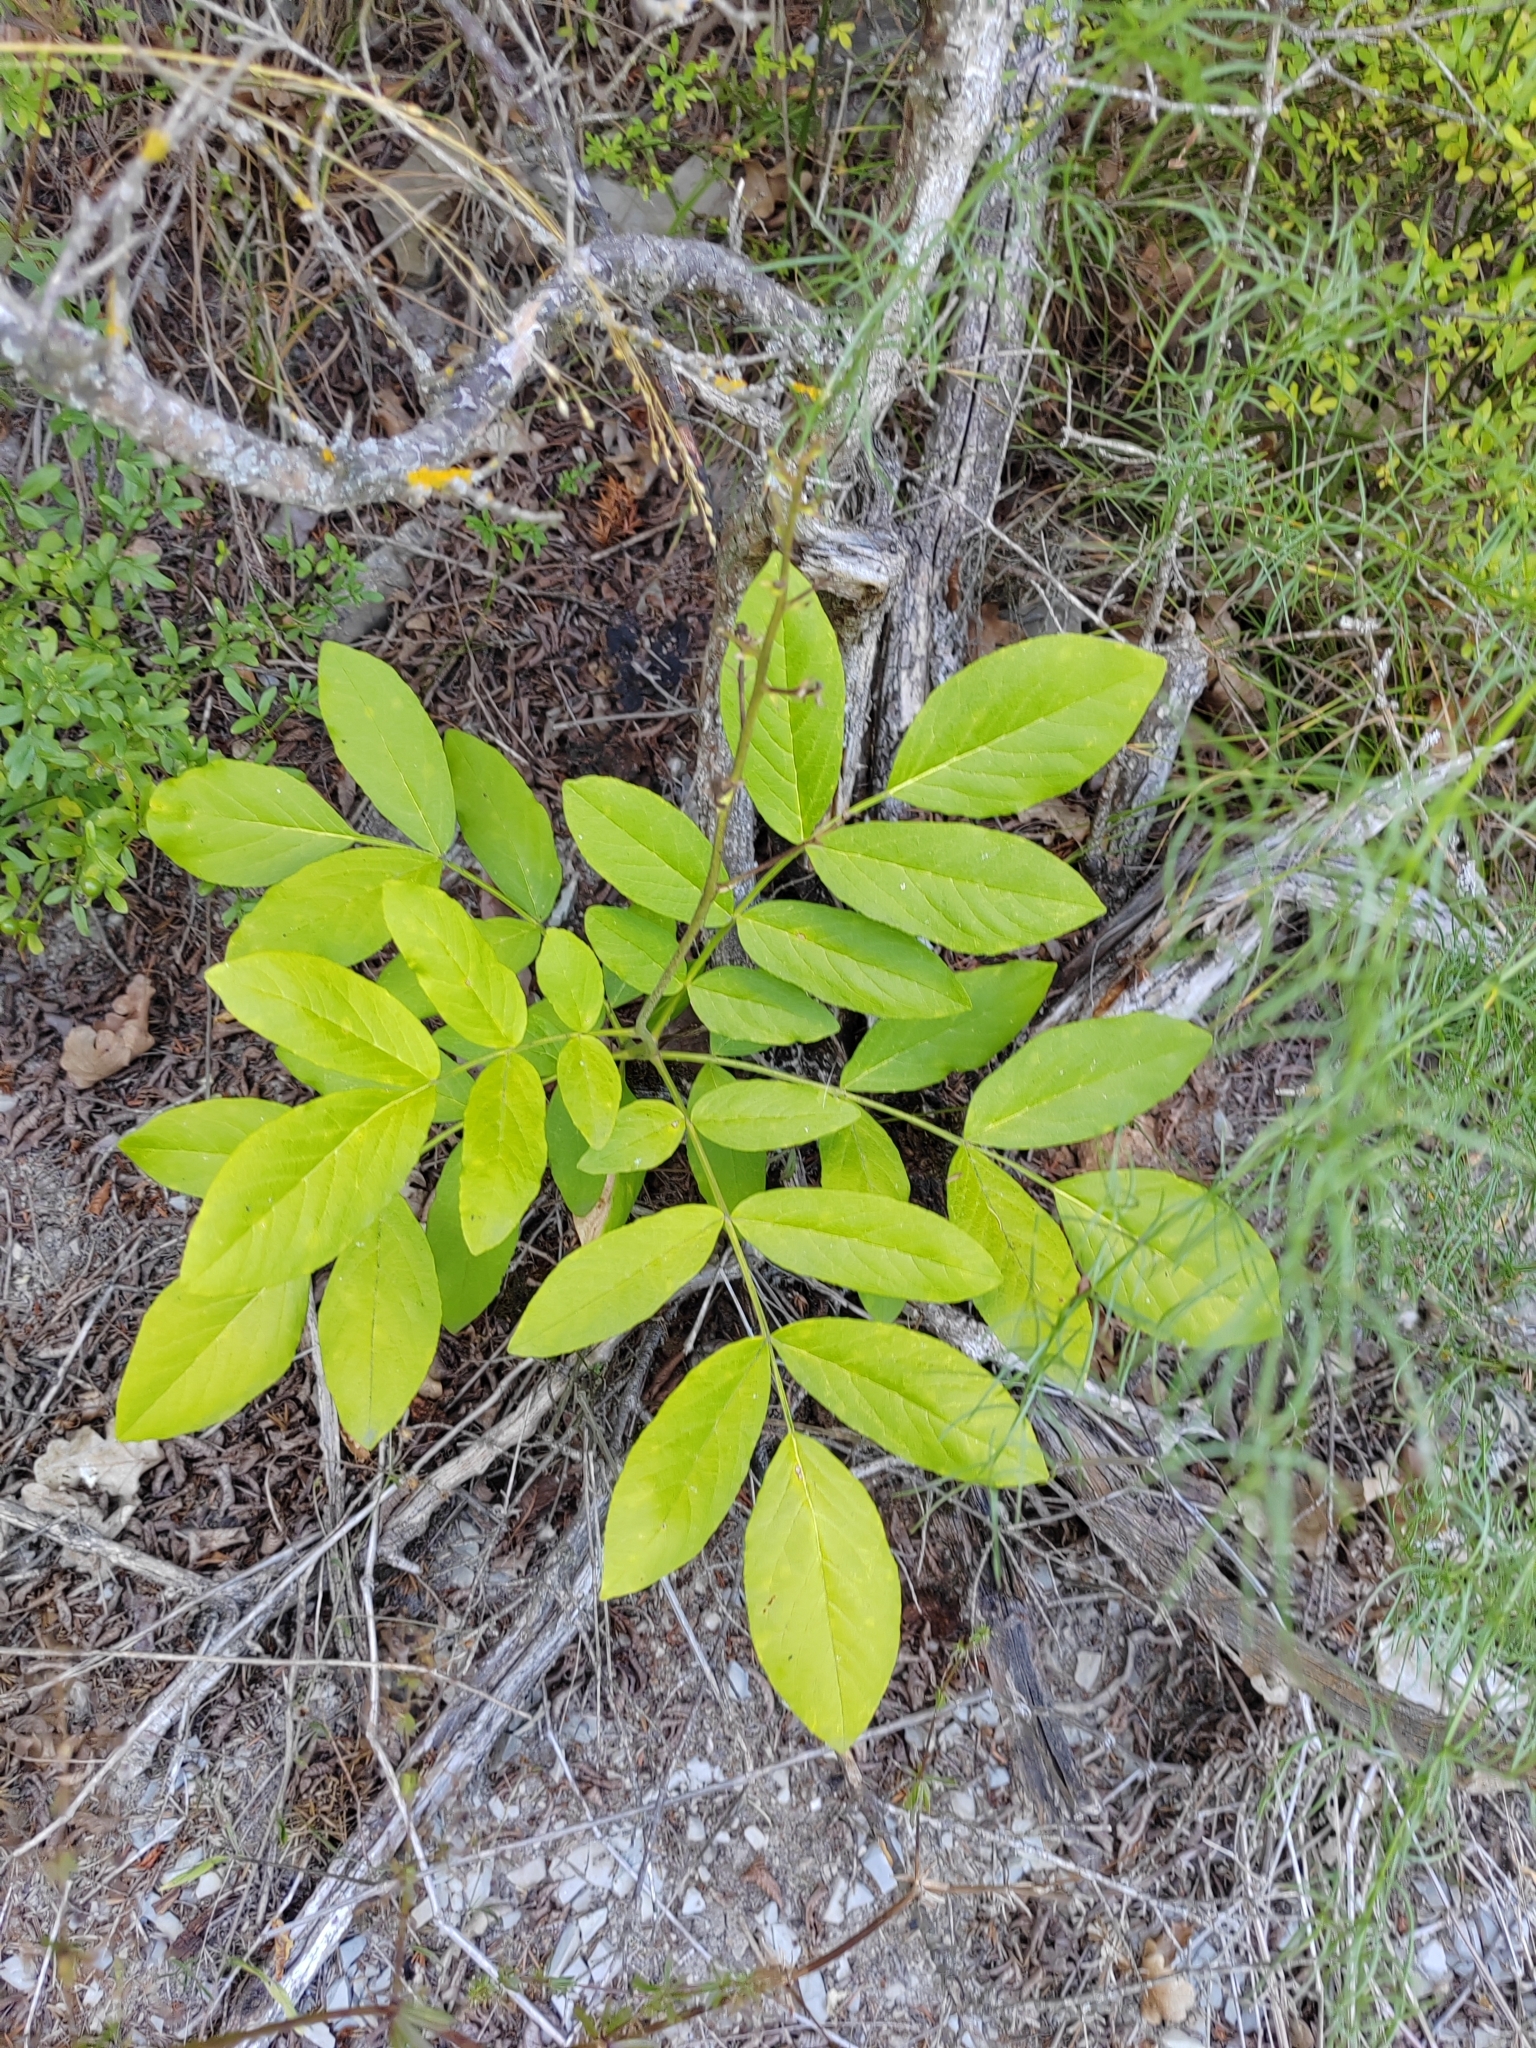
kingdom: Plantae
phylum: Tracheophyta
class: Magnoliopsida
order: Sapindales
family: Rutaceae
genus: Dictamnus
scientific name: Dictamnus albus
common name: Gasplant
